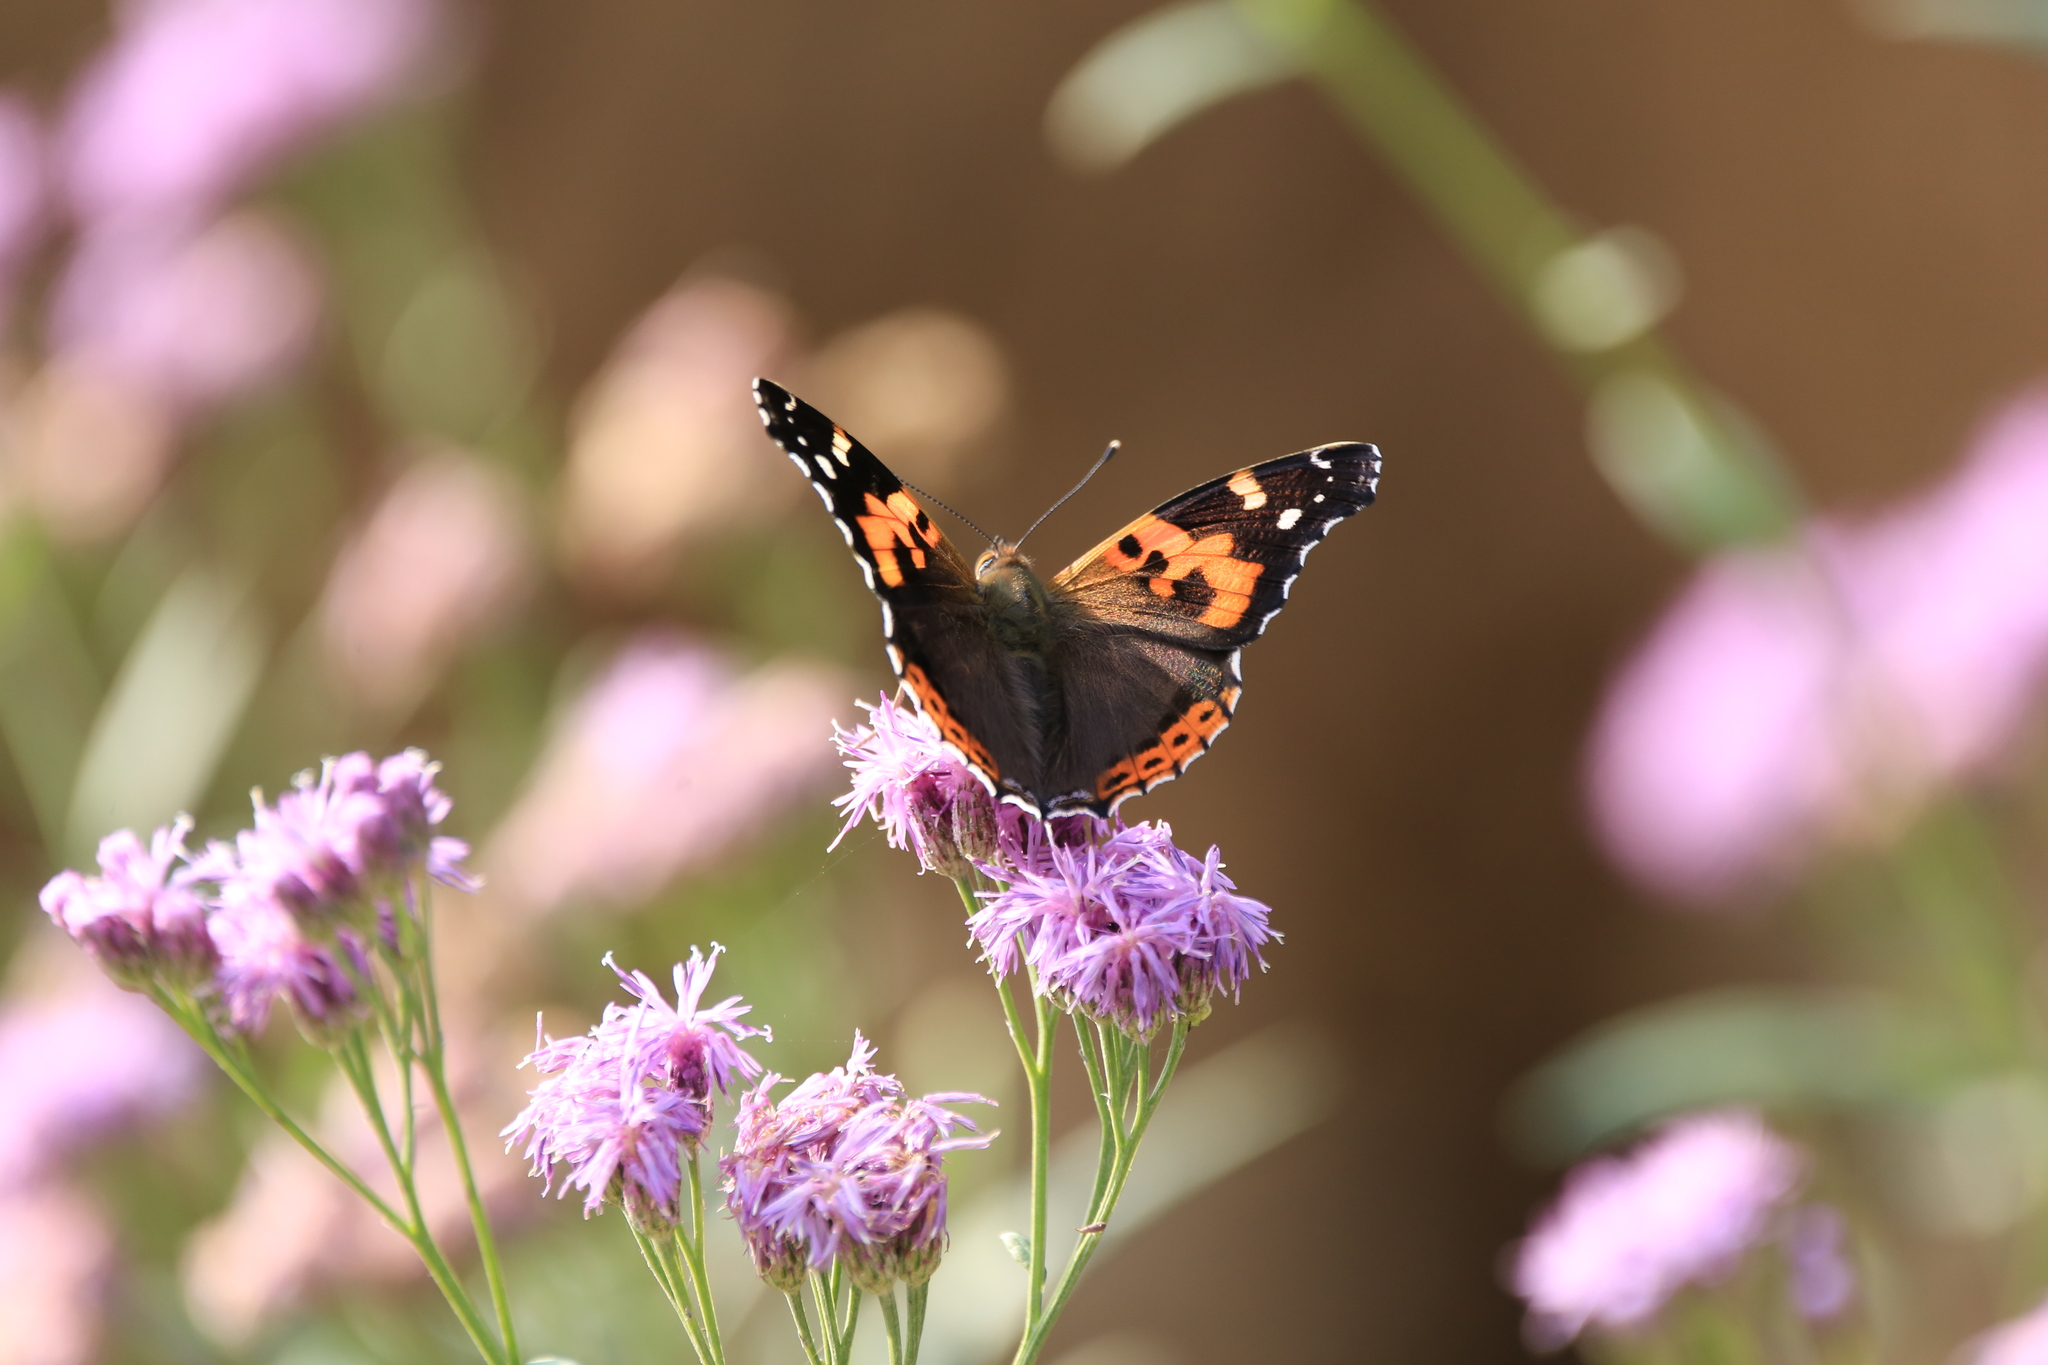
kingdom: Animalia
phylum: Arthropoda
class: Insecta
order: Lepidoptera
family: Nymphalidae
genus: Vanessa
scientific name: Vanessa indica
